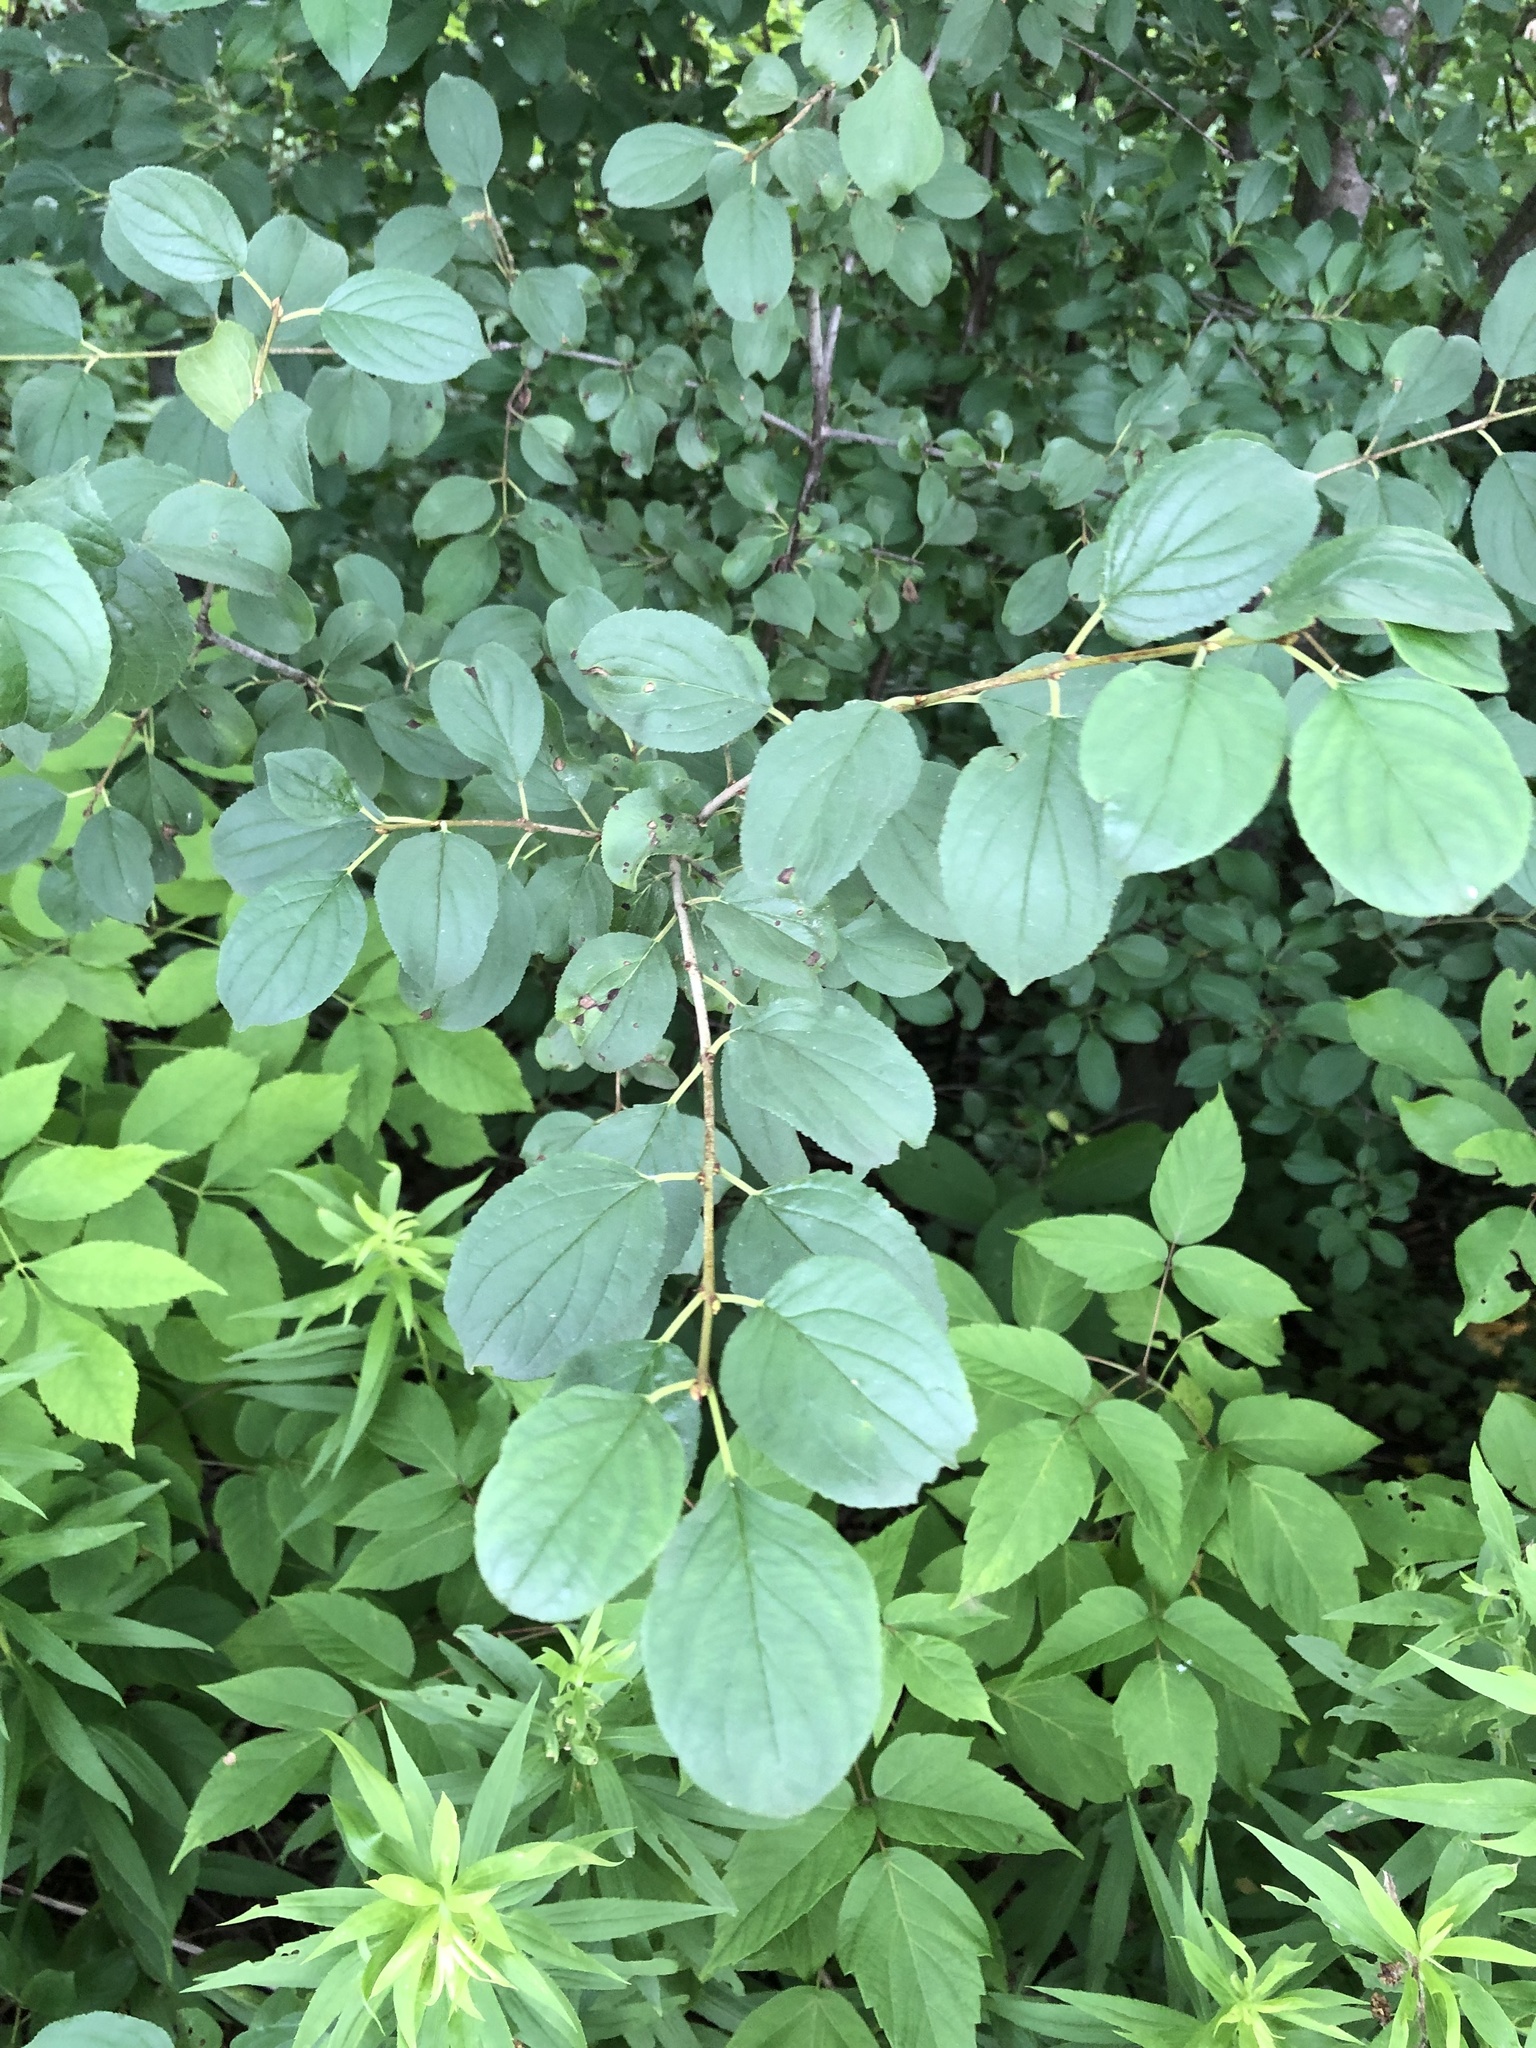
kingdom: Plantae
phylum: Tracheophyta
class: Magnoliopsida
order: Rosales
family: Rhamnaceae
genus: Rhamnus
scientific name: Rhamnus cathartica
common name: Common buckthorn
